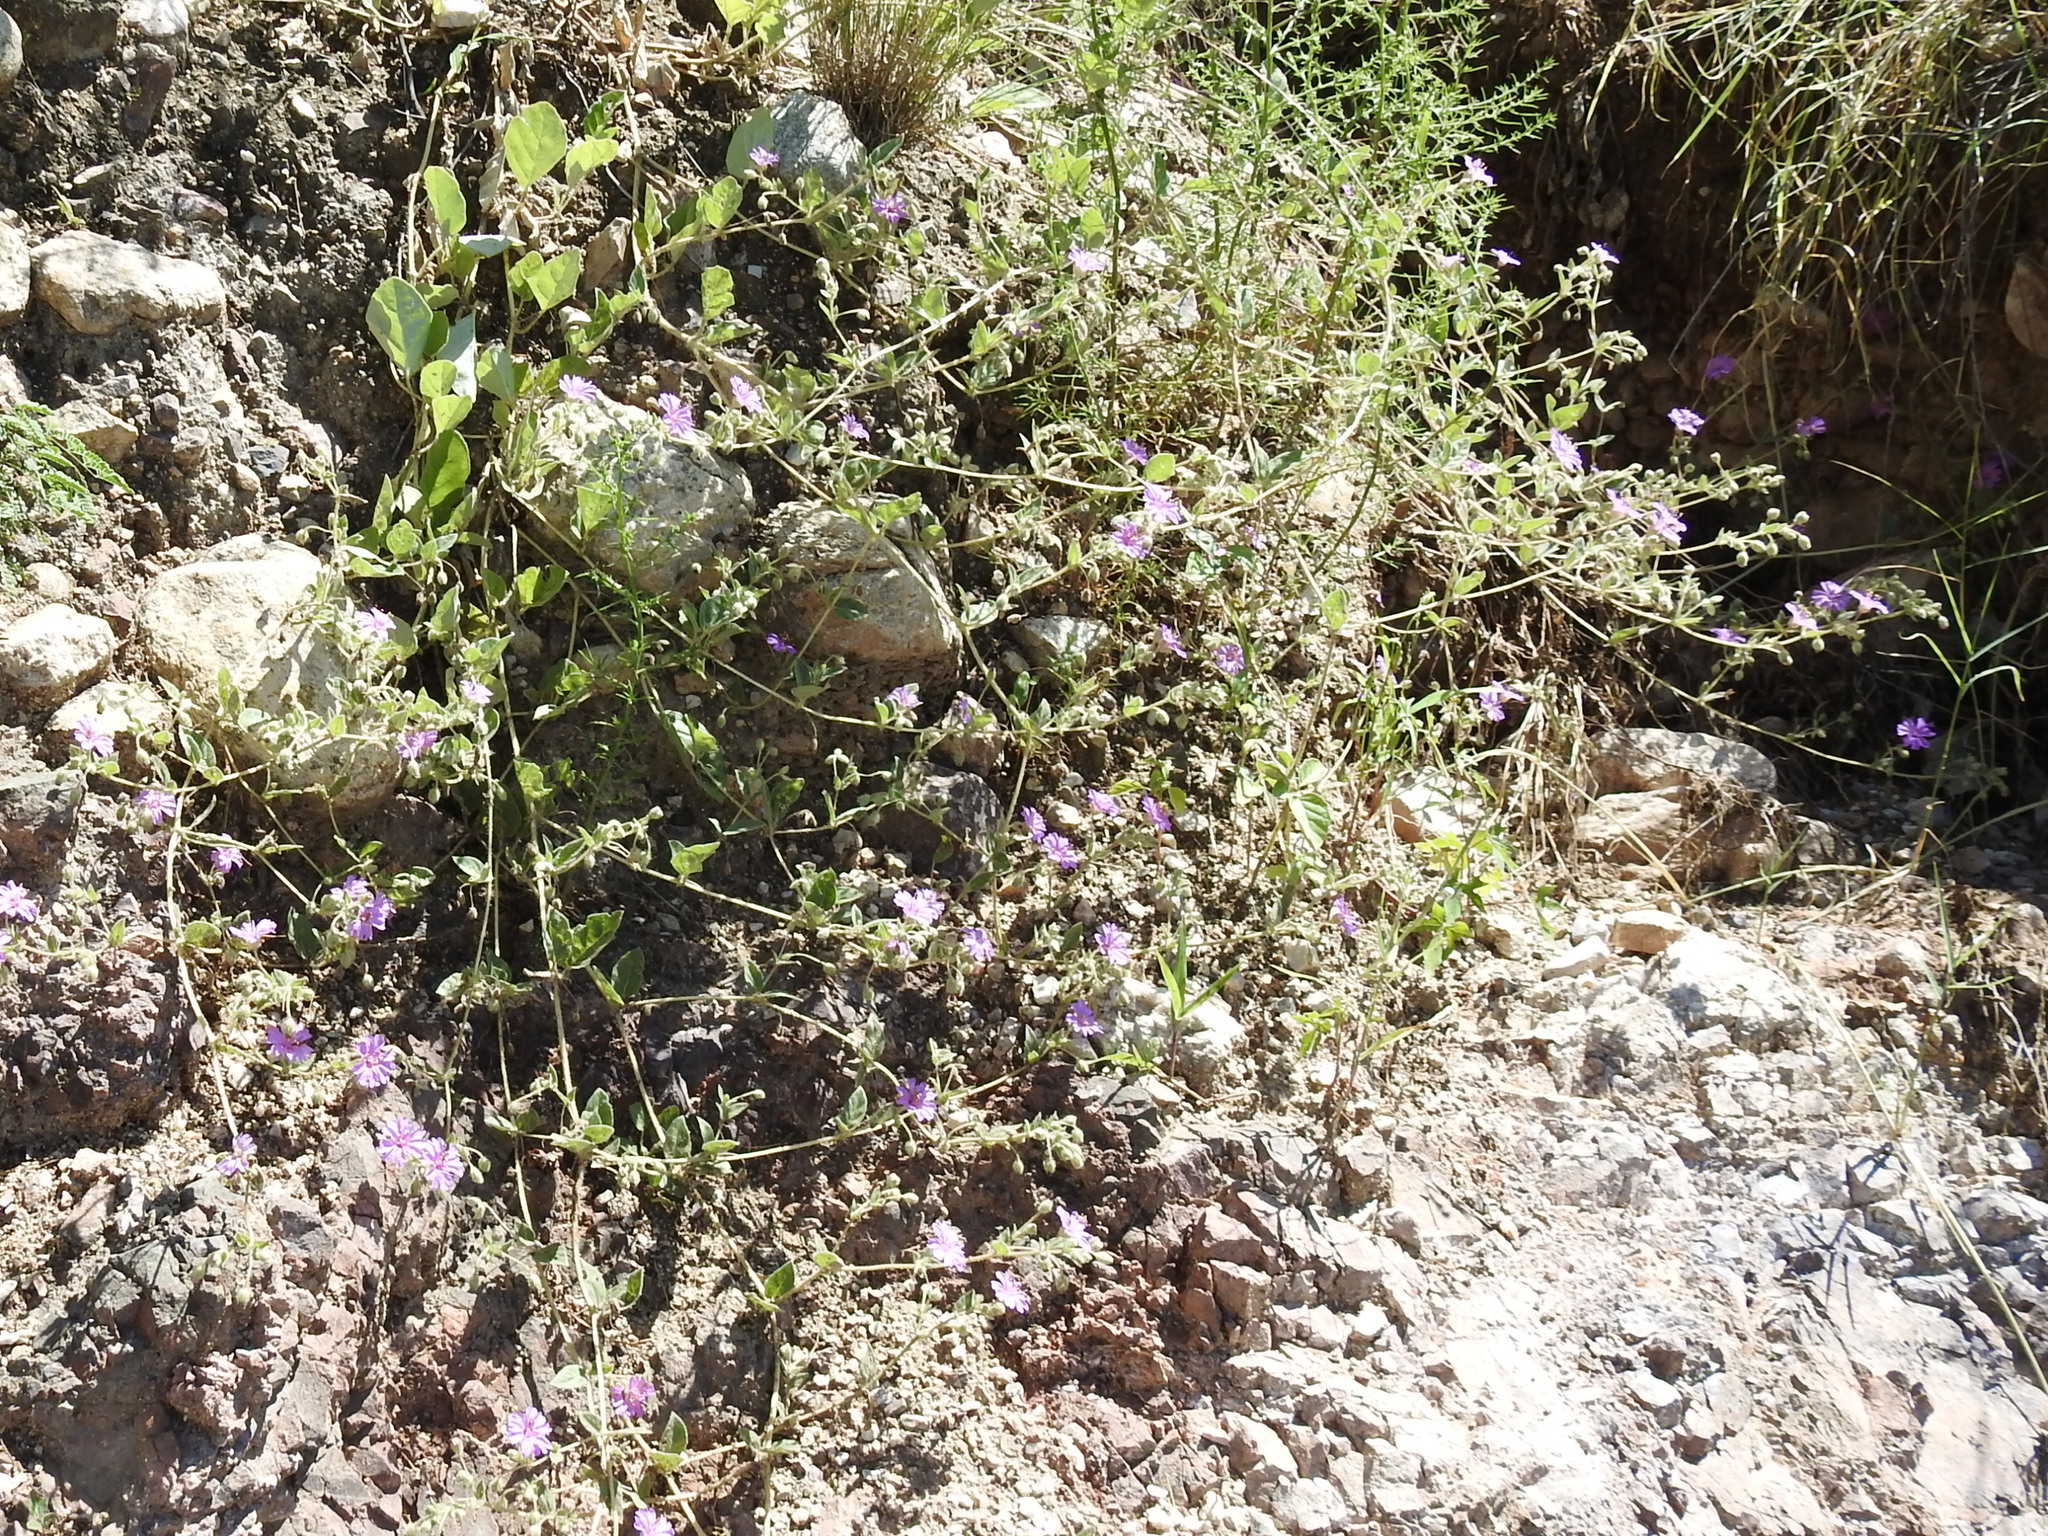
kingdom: Plantae
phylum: Tracheophyta
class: Magnoliopsida
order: Caryophyllales
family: Nyctaginaceae
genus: Allionia
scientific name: Allionia incarnata
